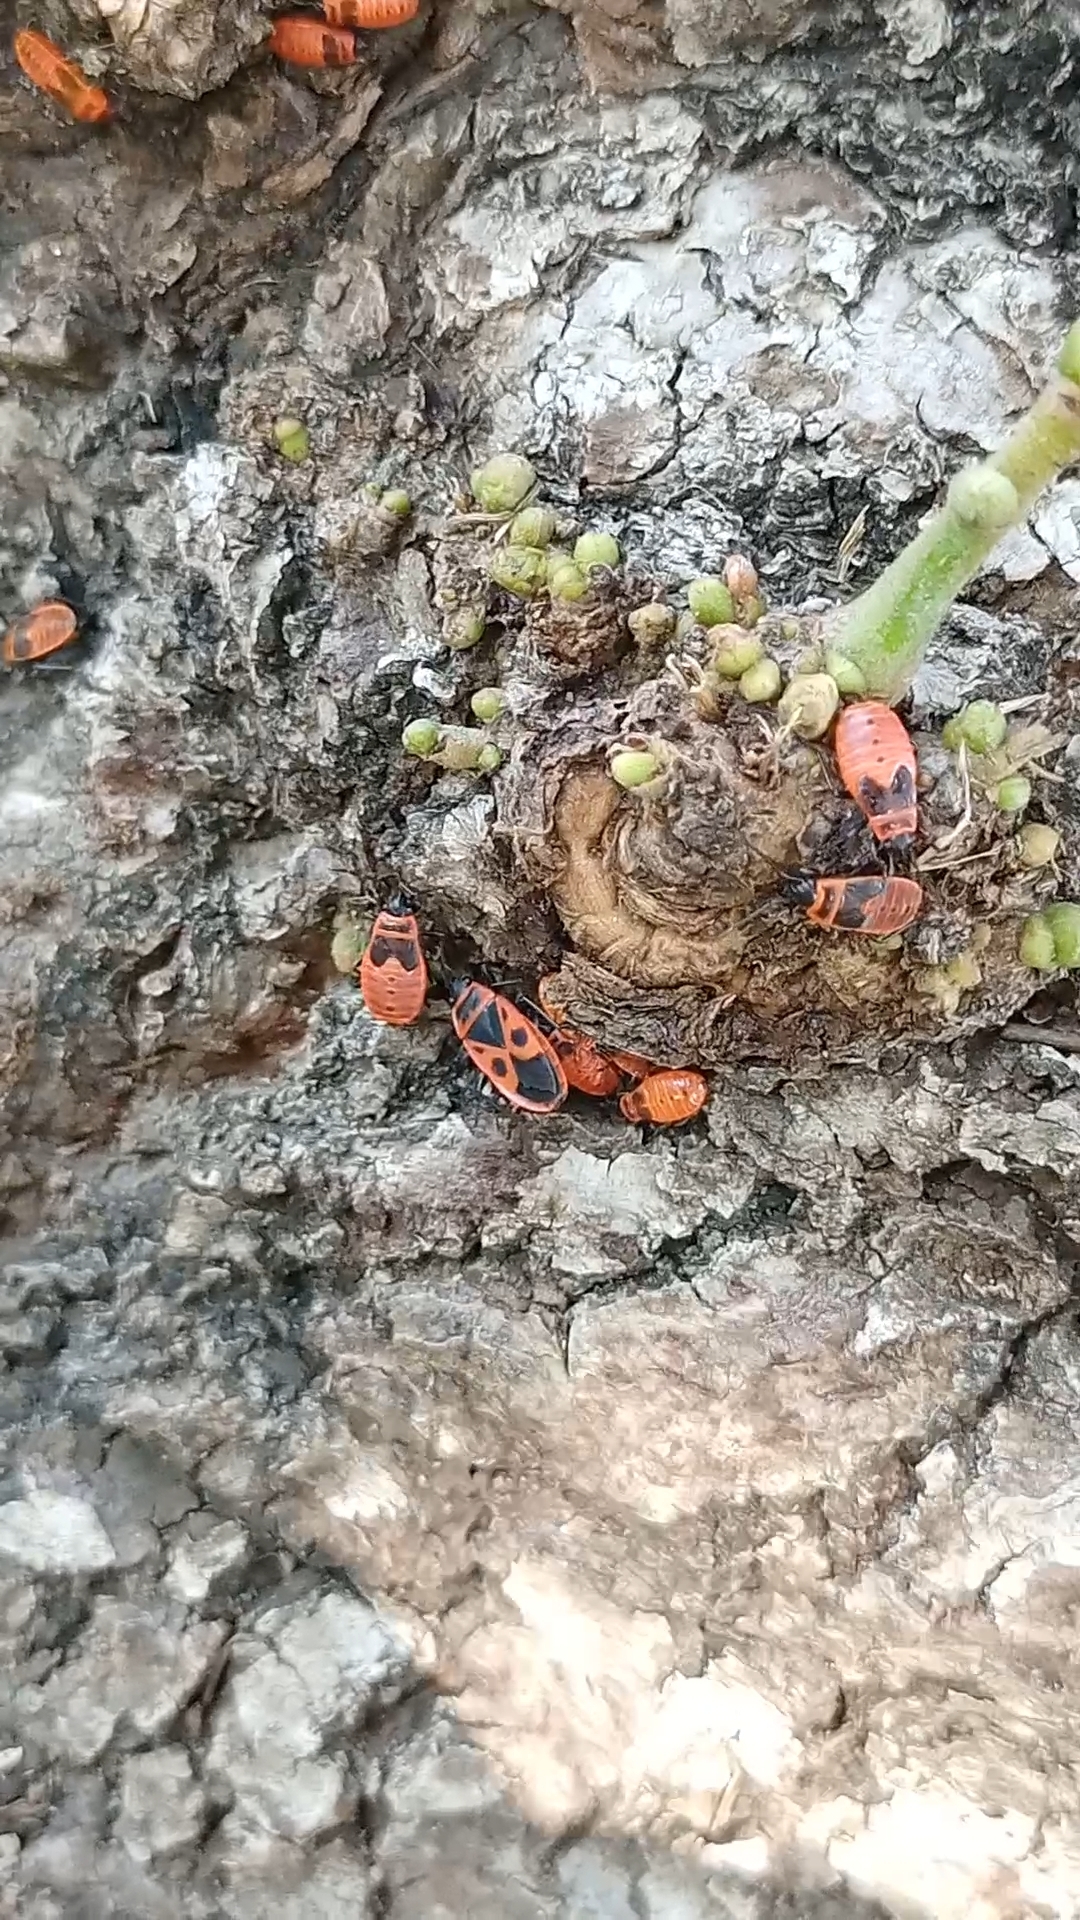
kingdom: Animalia
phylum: Arthropoda
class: Insecta
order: Hemiptera
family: Pyrrhocoridae
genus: Pyrrhocoris
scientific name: Pyrrhocoris apterus
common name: Firebug
